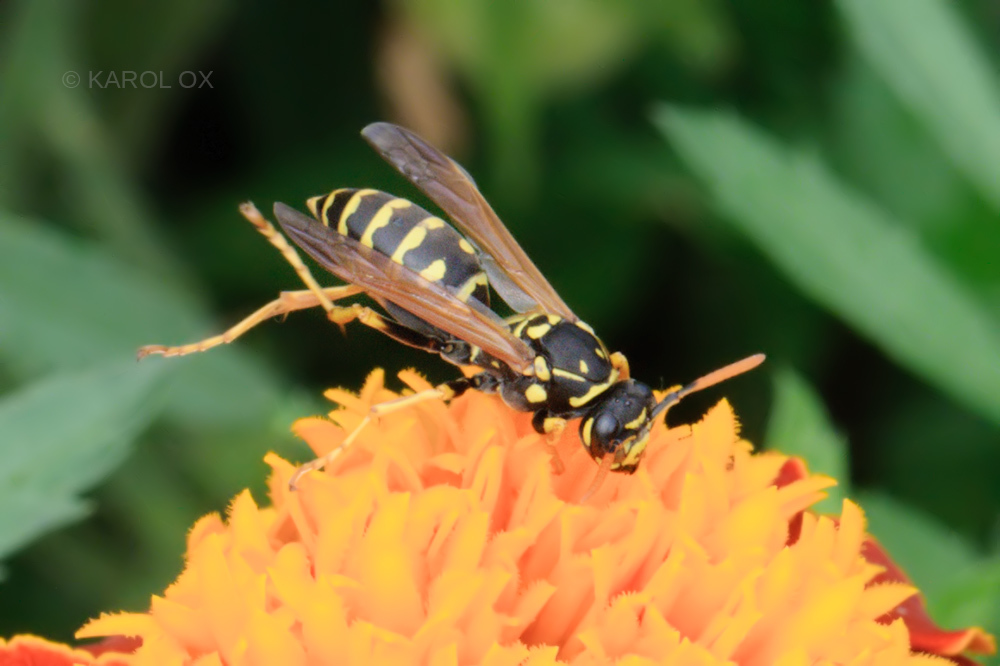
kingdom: Animalia
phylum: Arthropoda
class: Insecta
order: Hymenoptera
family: Eumenidae
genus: Polistes
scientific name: Polistes dominula
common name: Paper wasp
